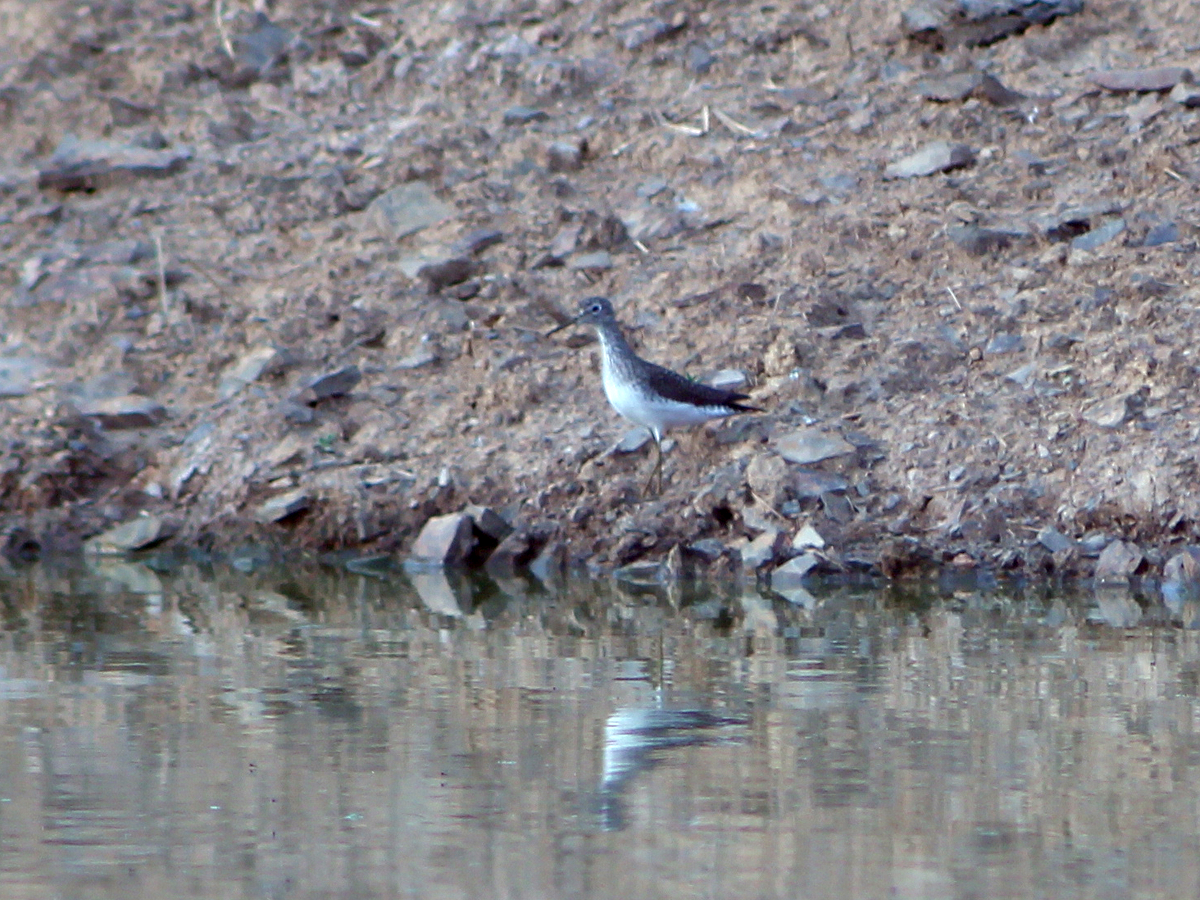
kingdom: Animalia
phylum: Chordata
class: Aves
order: Charadriiformes
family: Scolopacidae
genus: Tringa
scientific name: Tringa solitaria
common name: Solitary sandpiper
